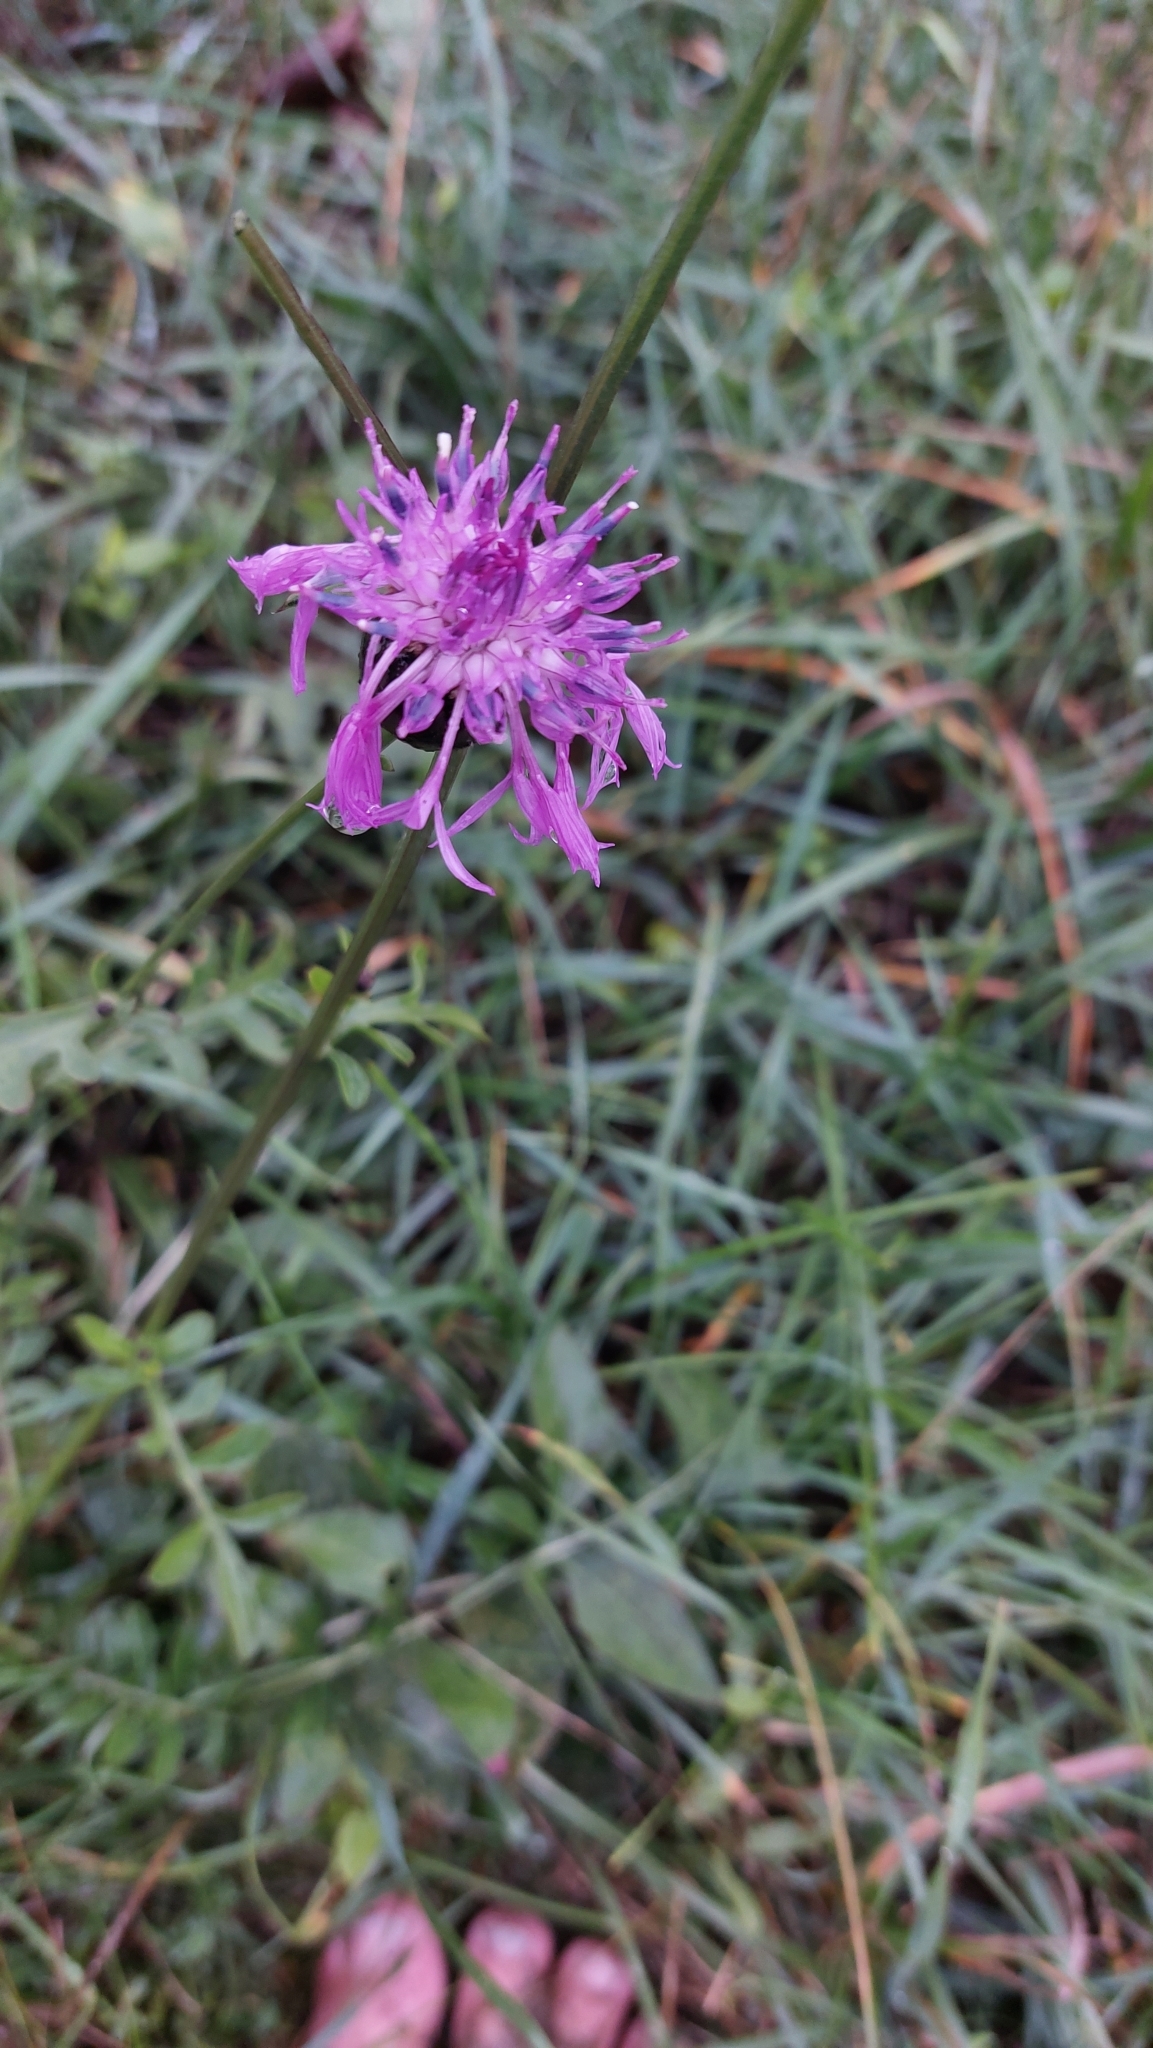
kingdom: Plantae
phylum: Tracheophyta
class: Magnoliopsida
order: Asterales
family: Asteraceae
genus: Centaurea
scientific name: Centaurea scabiosa
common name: Greater knapweed
